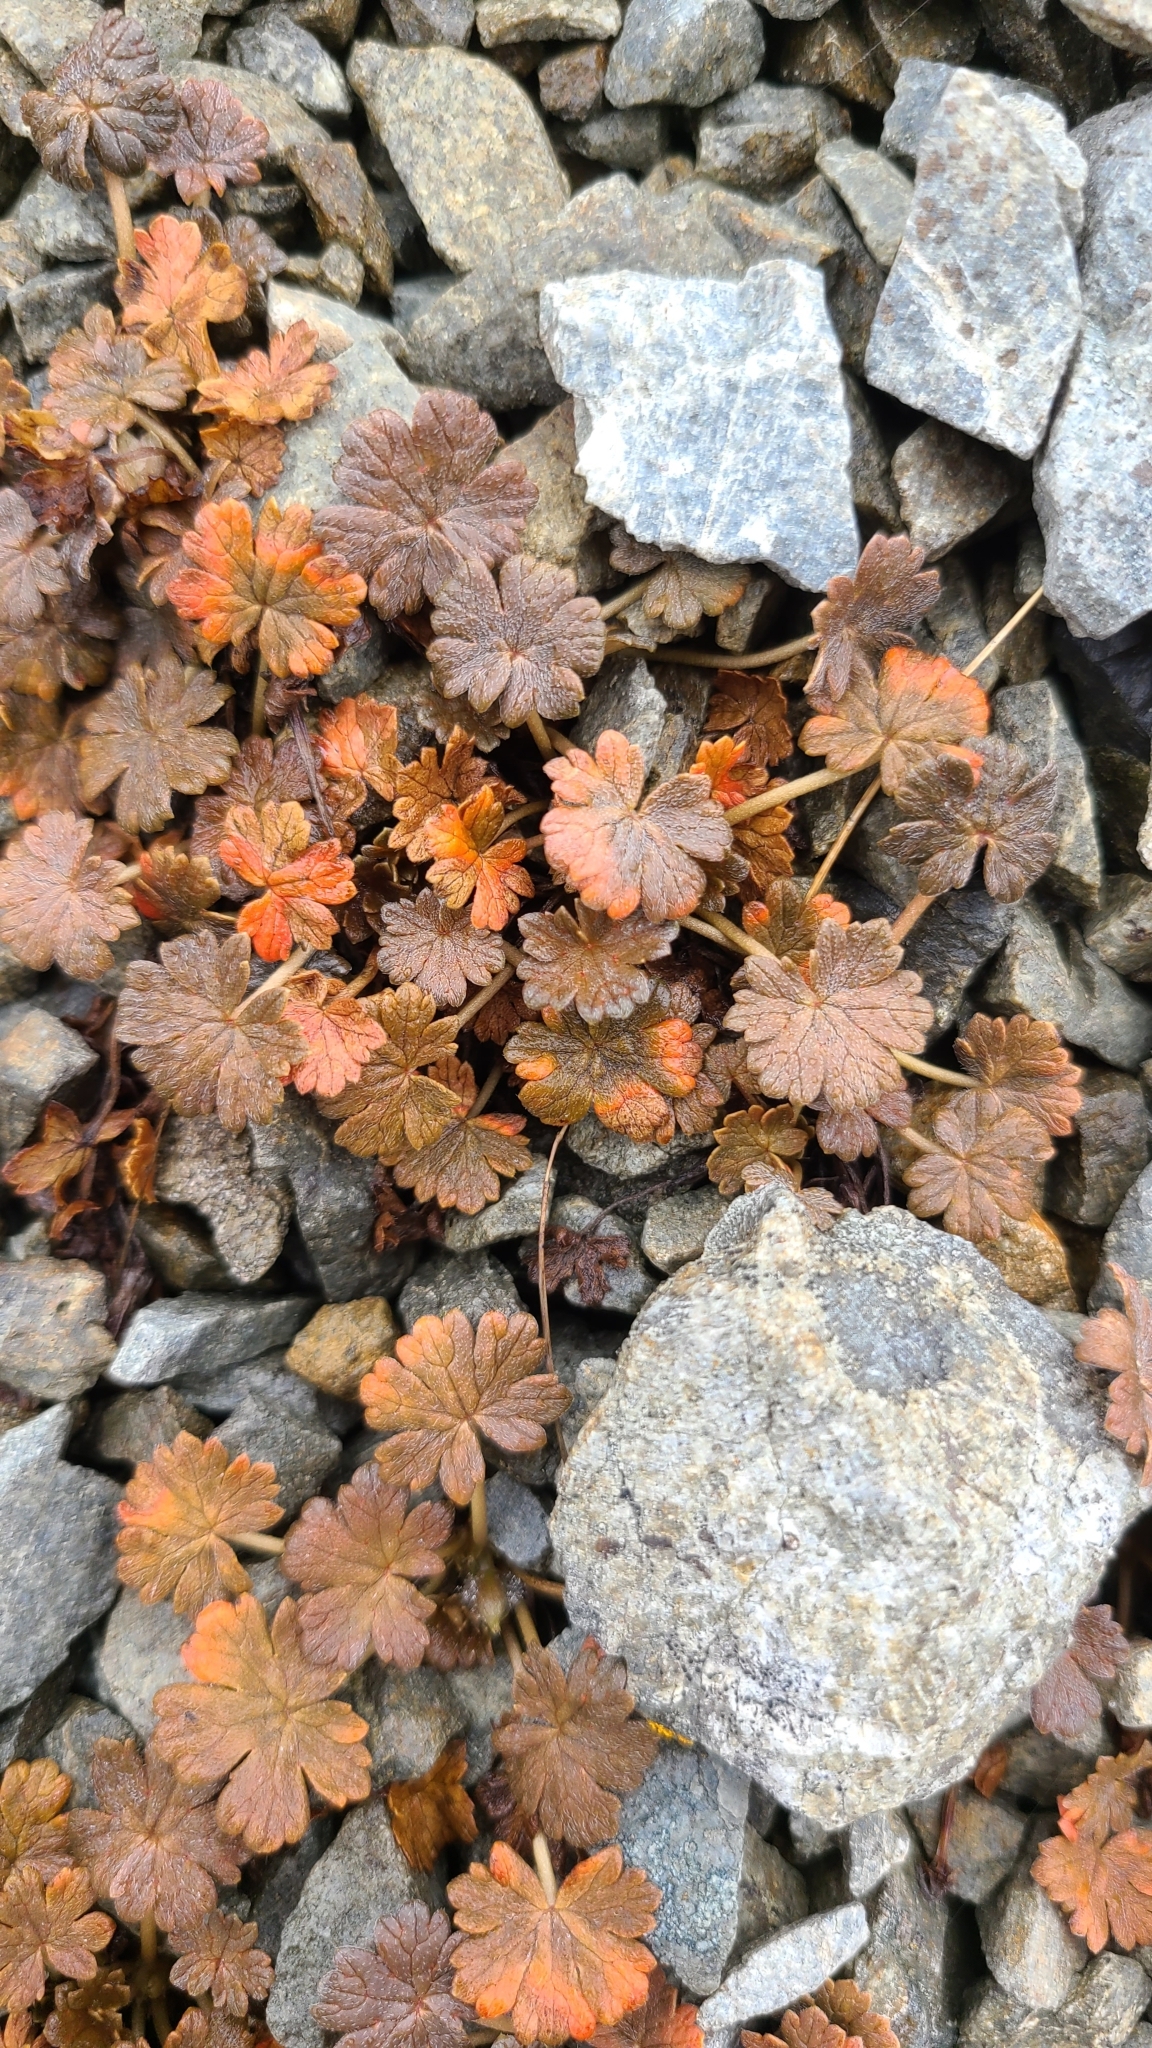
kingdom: Plantae
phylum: Tracheophyta
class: Magnoliopsida
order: Geraniales
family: Geraniaceae
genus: Geranium
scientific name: Geranium brevicaule
